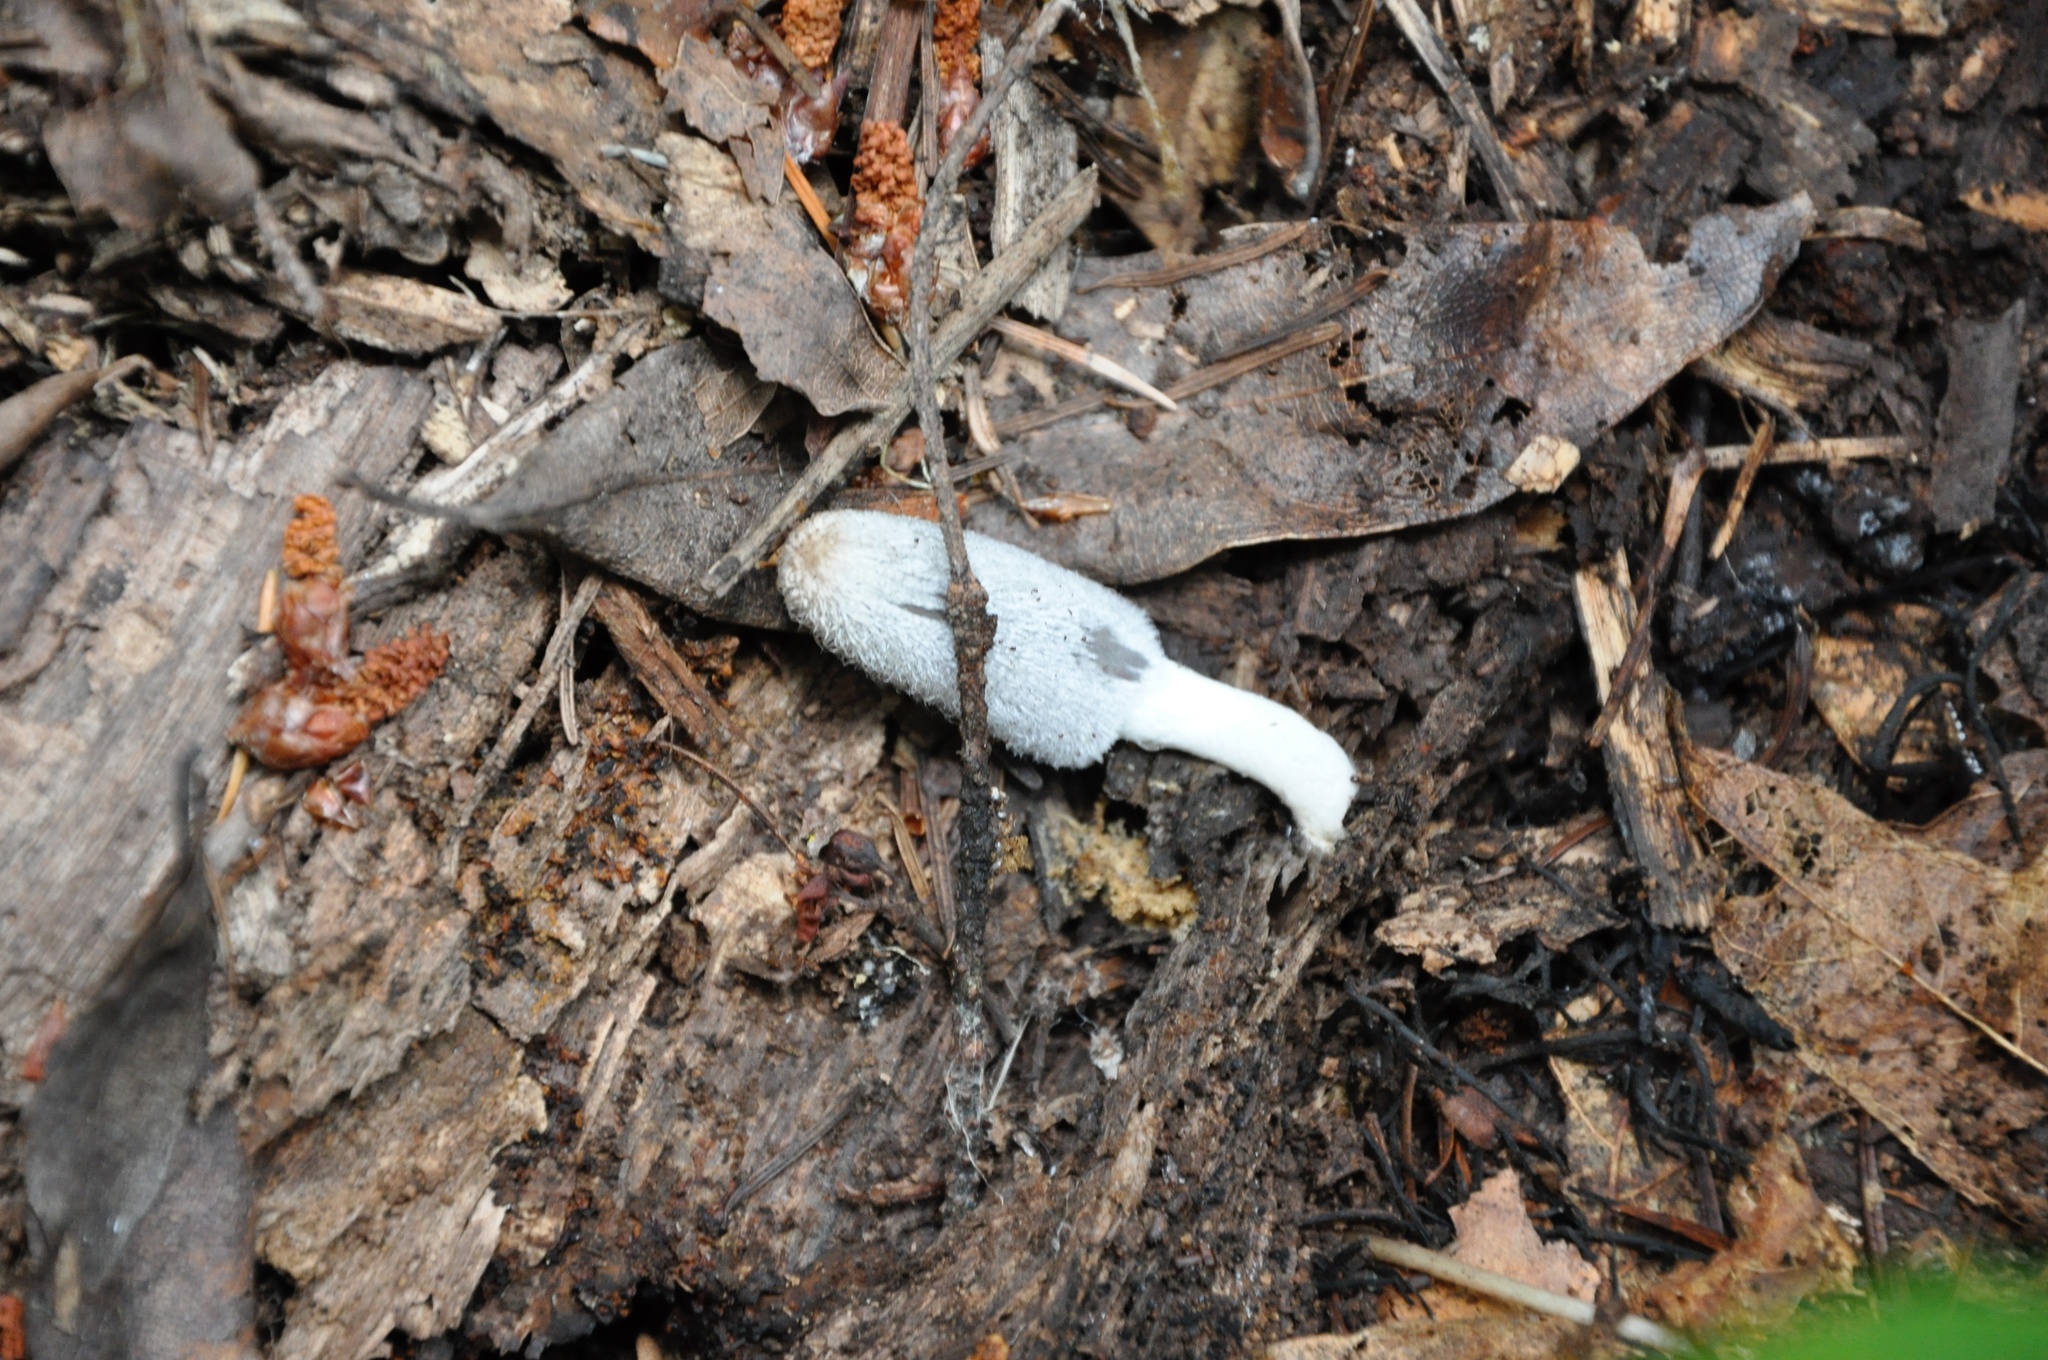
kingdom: Fungi
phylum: Basidiomycota
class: Agaricomycetes
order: Agaricales
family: Psathyrellaceae
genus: Coprinopsis
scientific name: Coprinopsis lagopus
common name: Hare'sfoot inkcap
